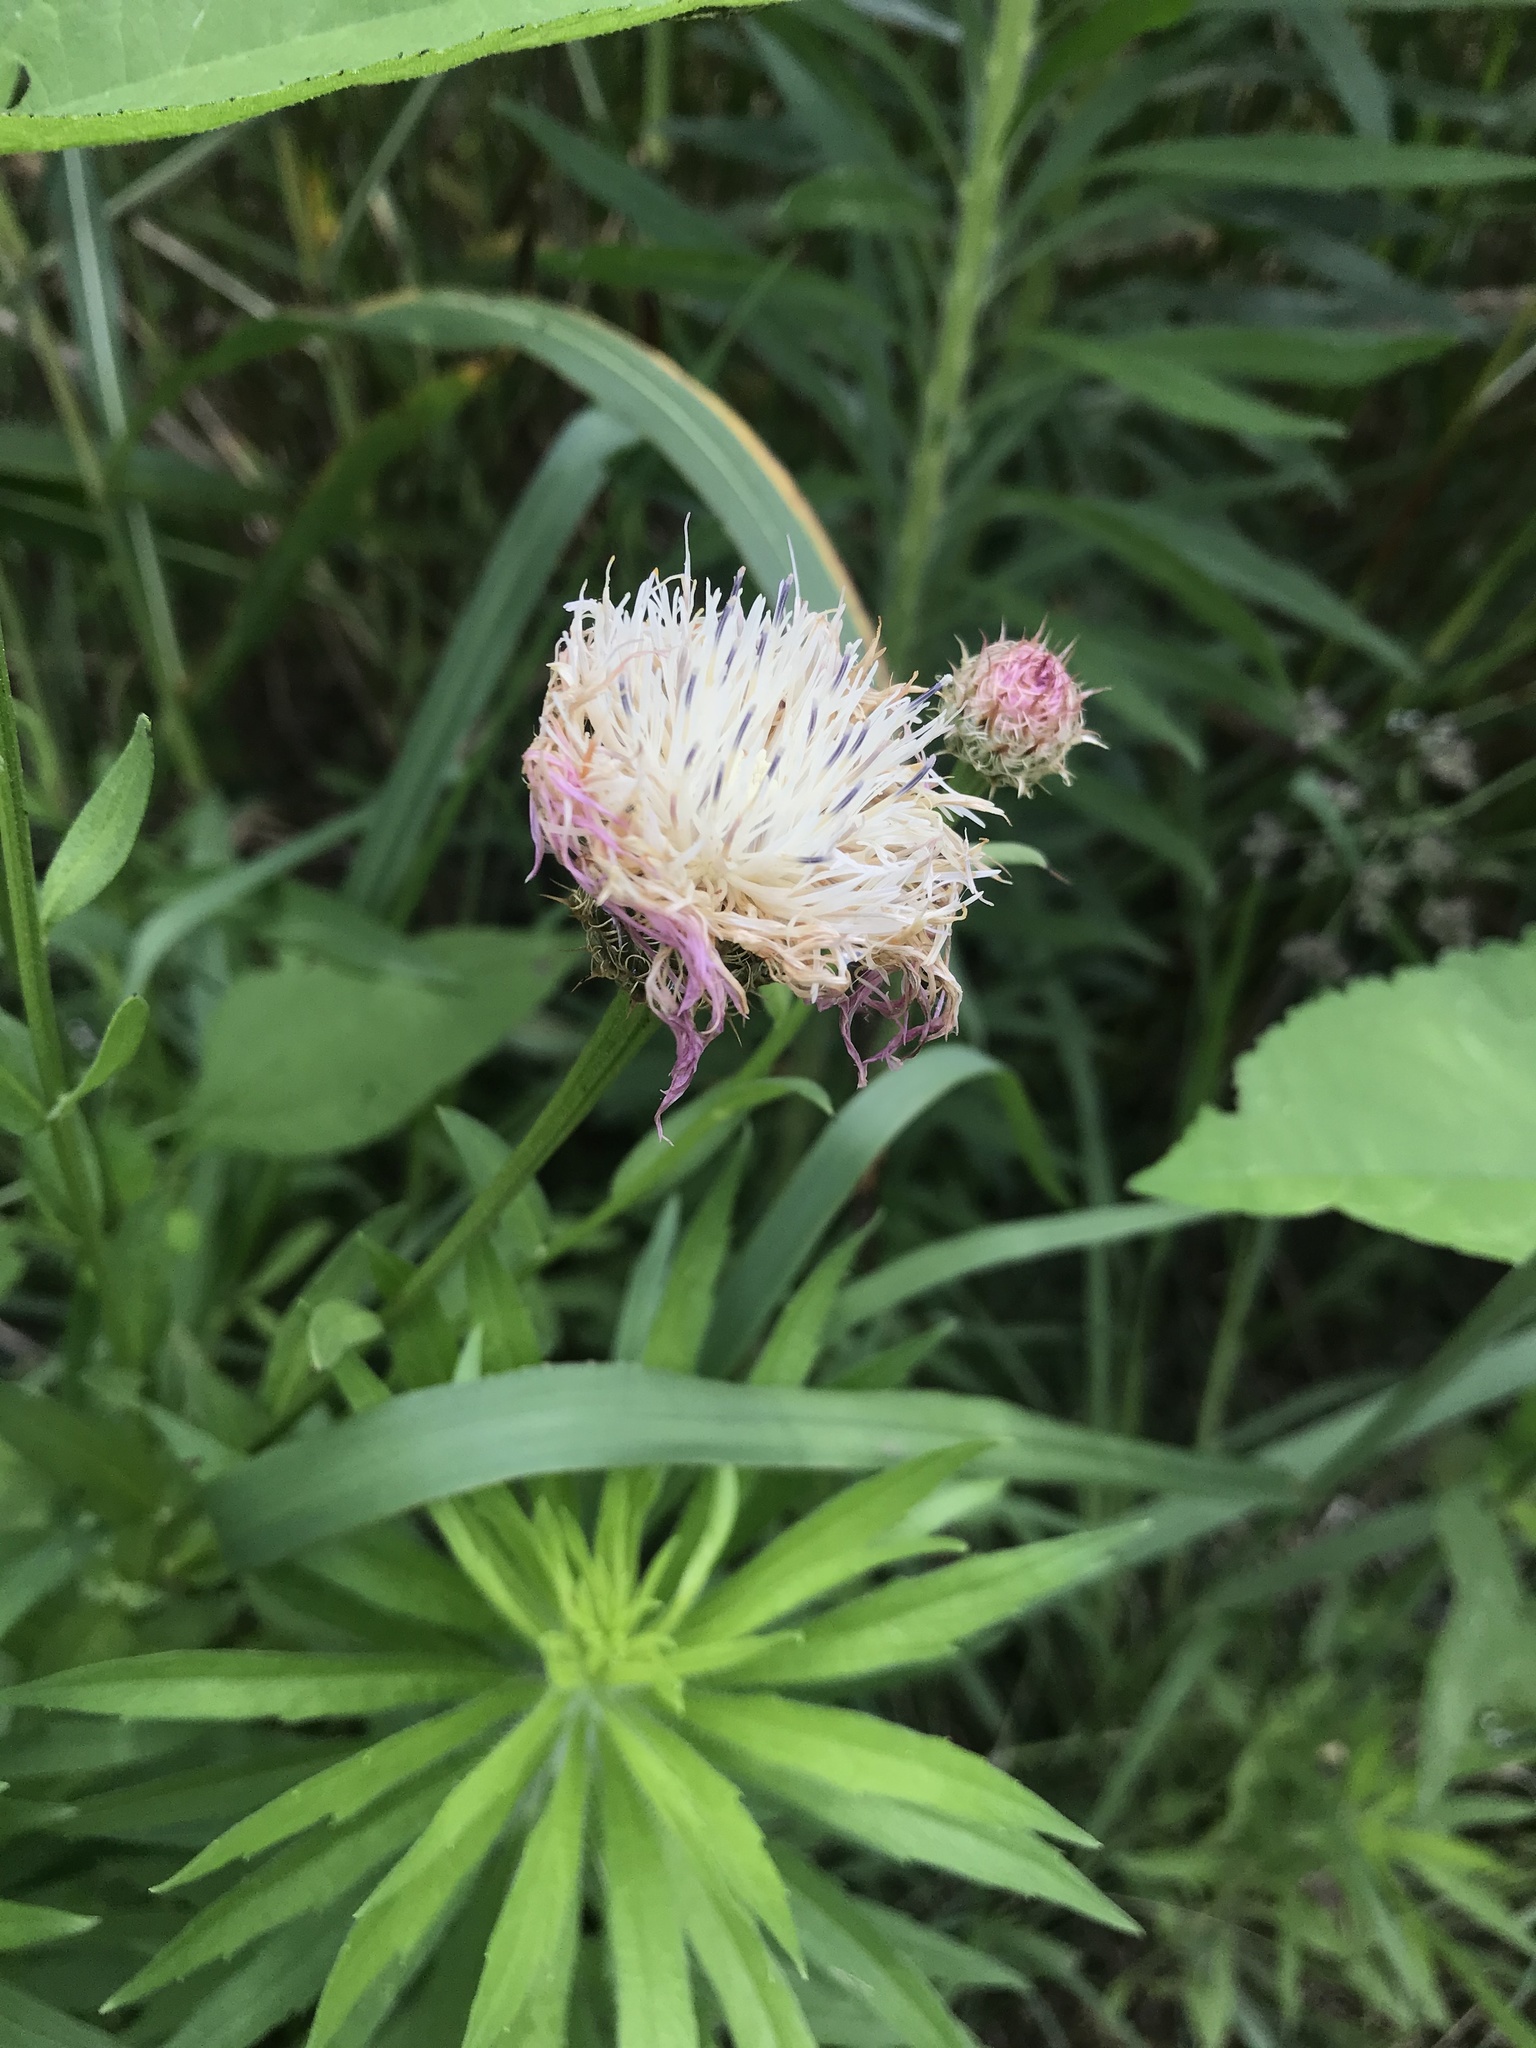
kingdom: Plantae
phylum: Tracheophyta
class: Magnoliopsida
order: Asterales
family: Asteraceae
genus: Plectocephalus
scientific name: Plectocephalus americanus
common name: American basket-flower
